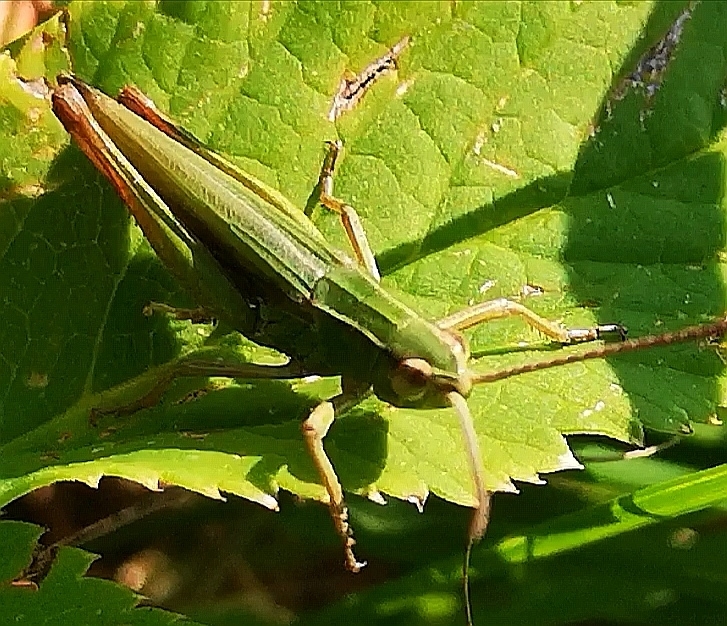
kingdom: Animalia
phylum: Arthropoda
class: Insecta
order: Orthoptera
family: Acrididae
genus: Omocestus
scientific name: Omocestus viridulus
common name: Common green grasshopper
